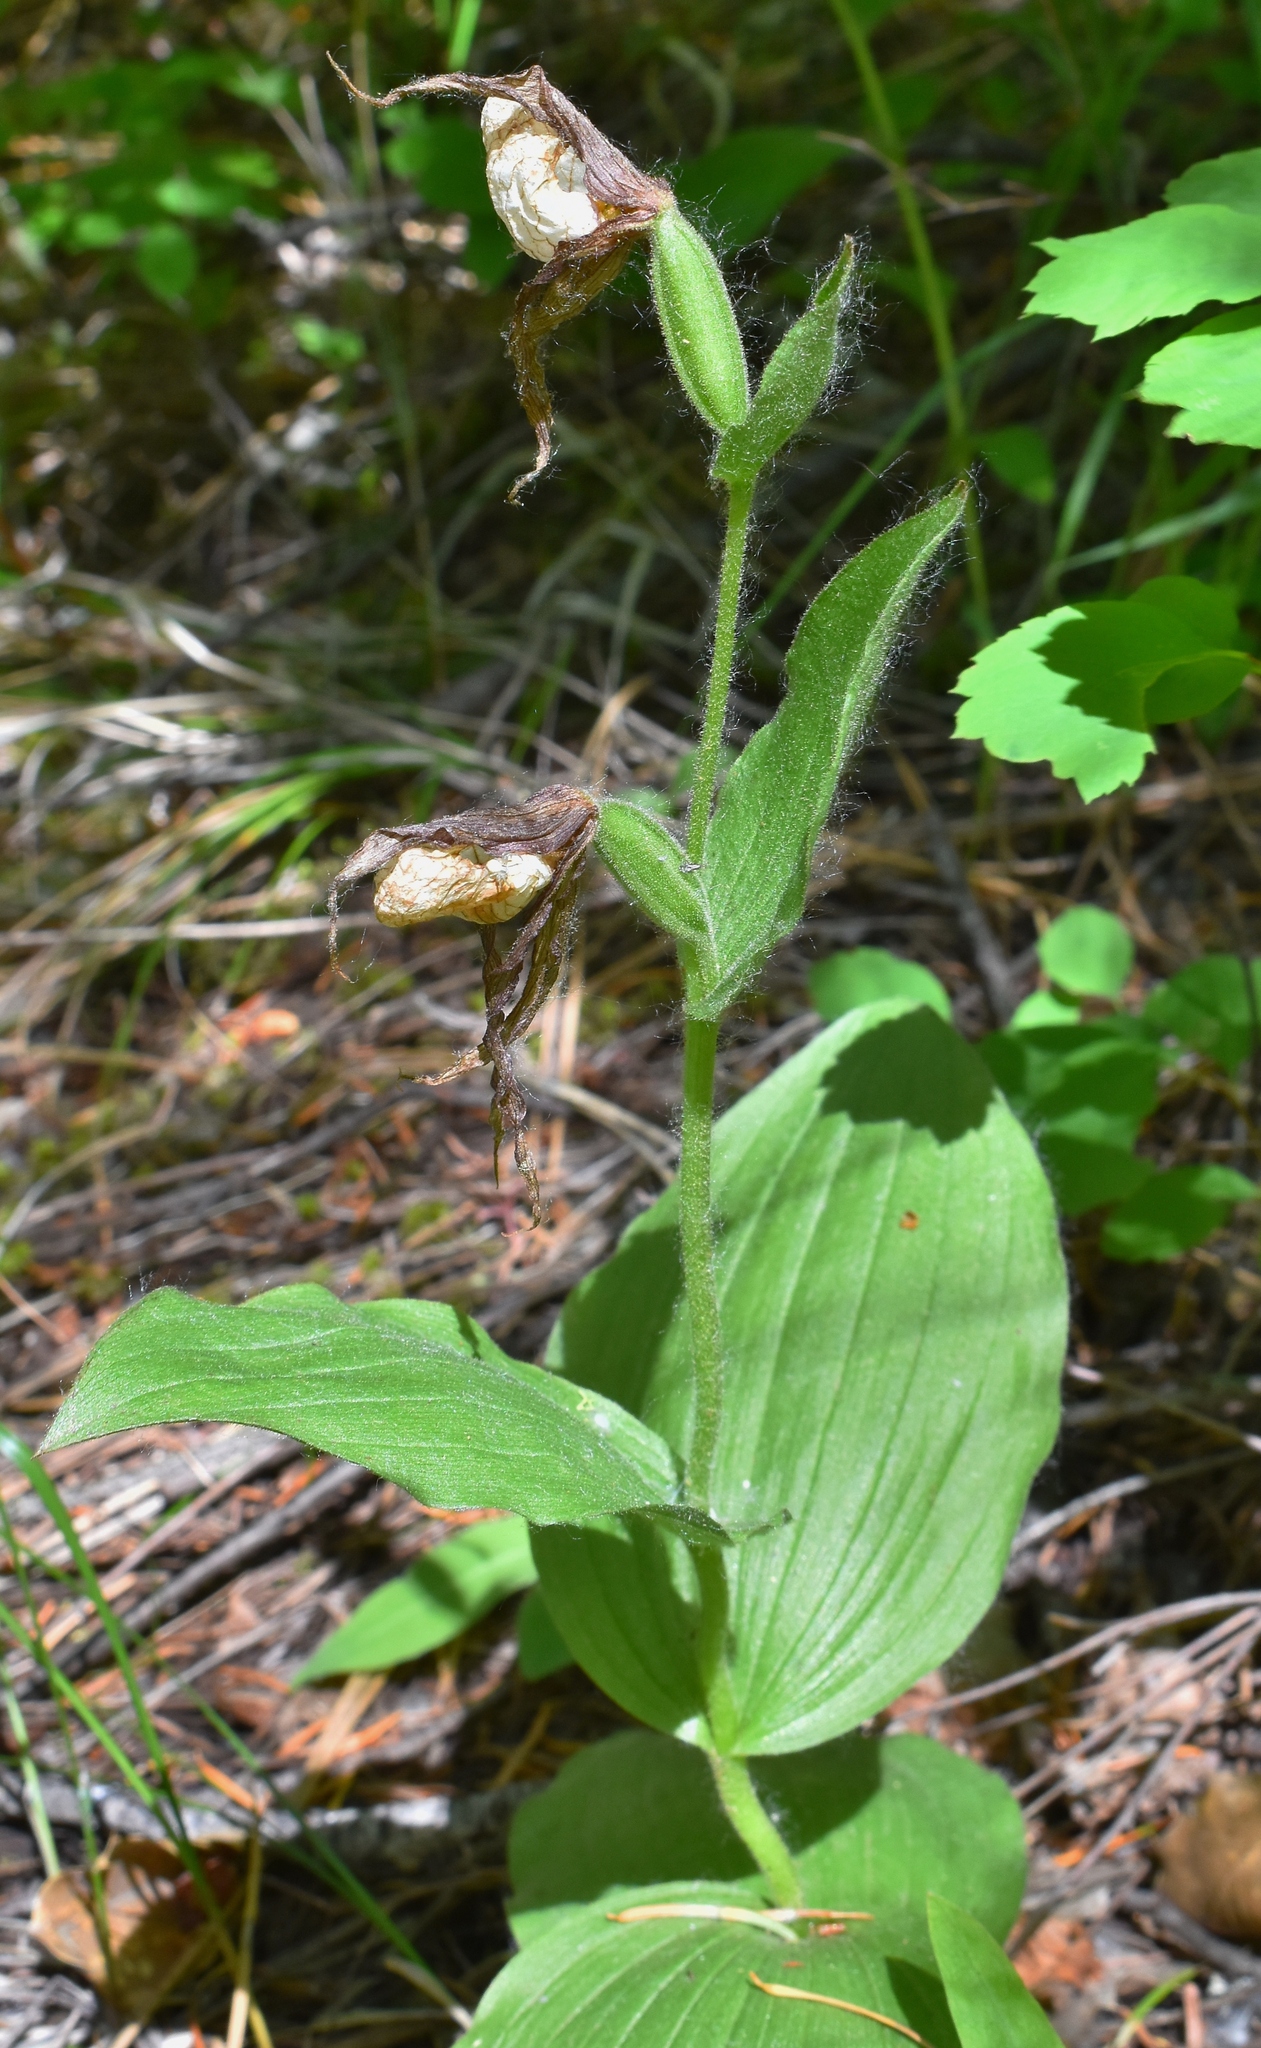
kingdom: Plantae
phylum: Tracheophyta
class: Liliopsida
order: Asparagales
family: Orchidaceae
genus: Cypripedium
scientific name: Cypripedium montanum
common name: Mountain lady's-slipper
